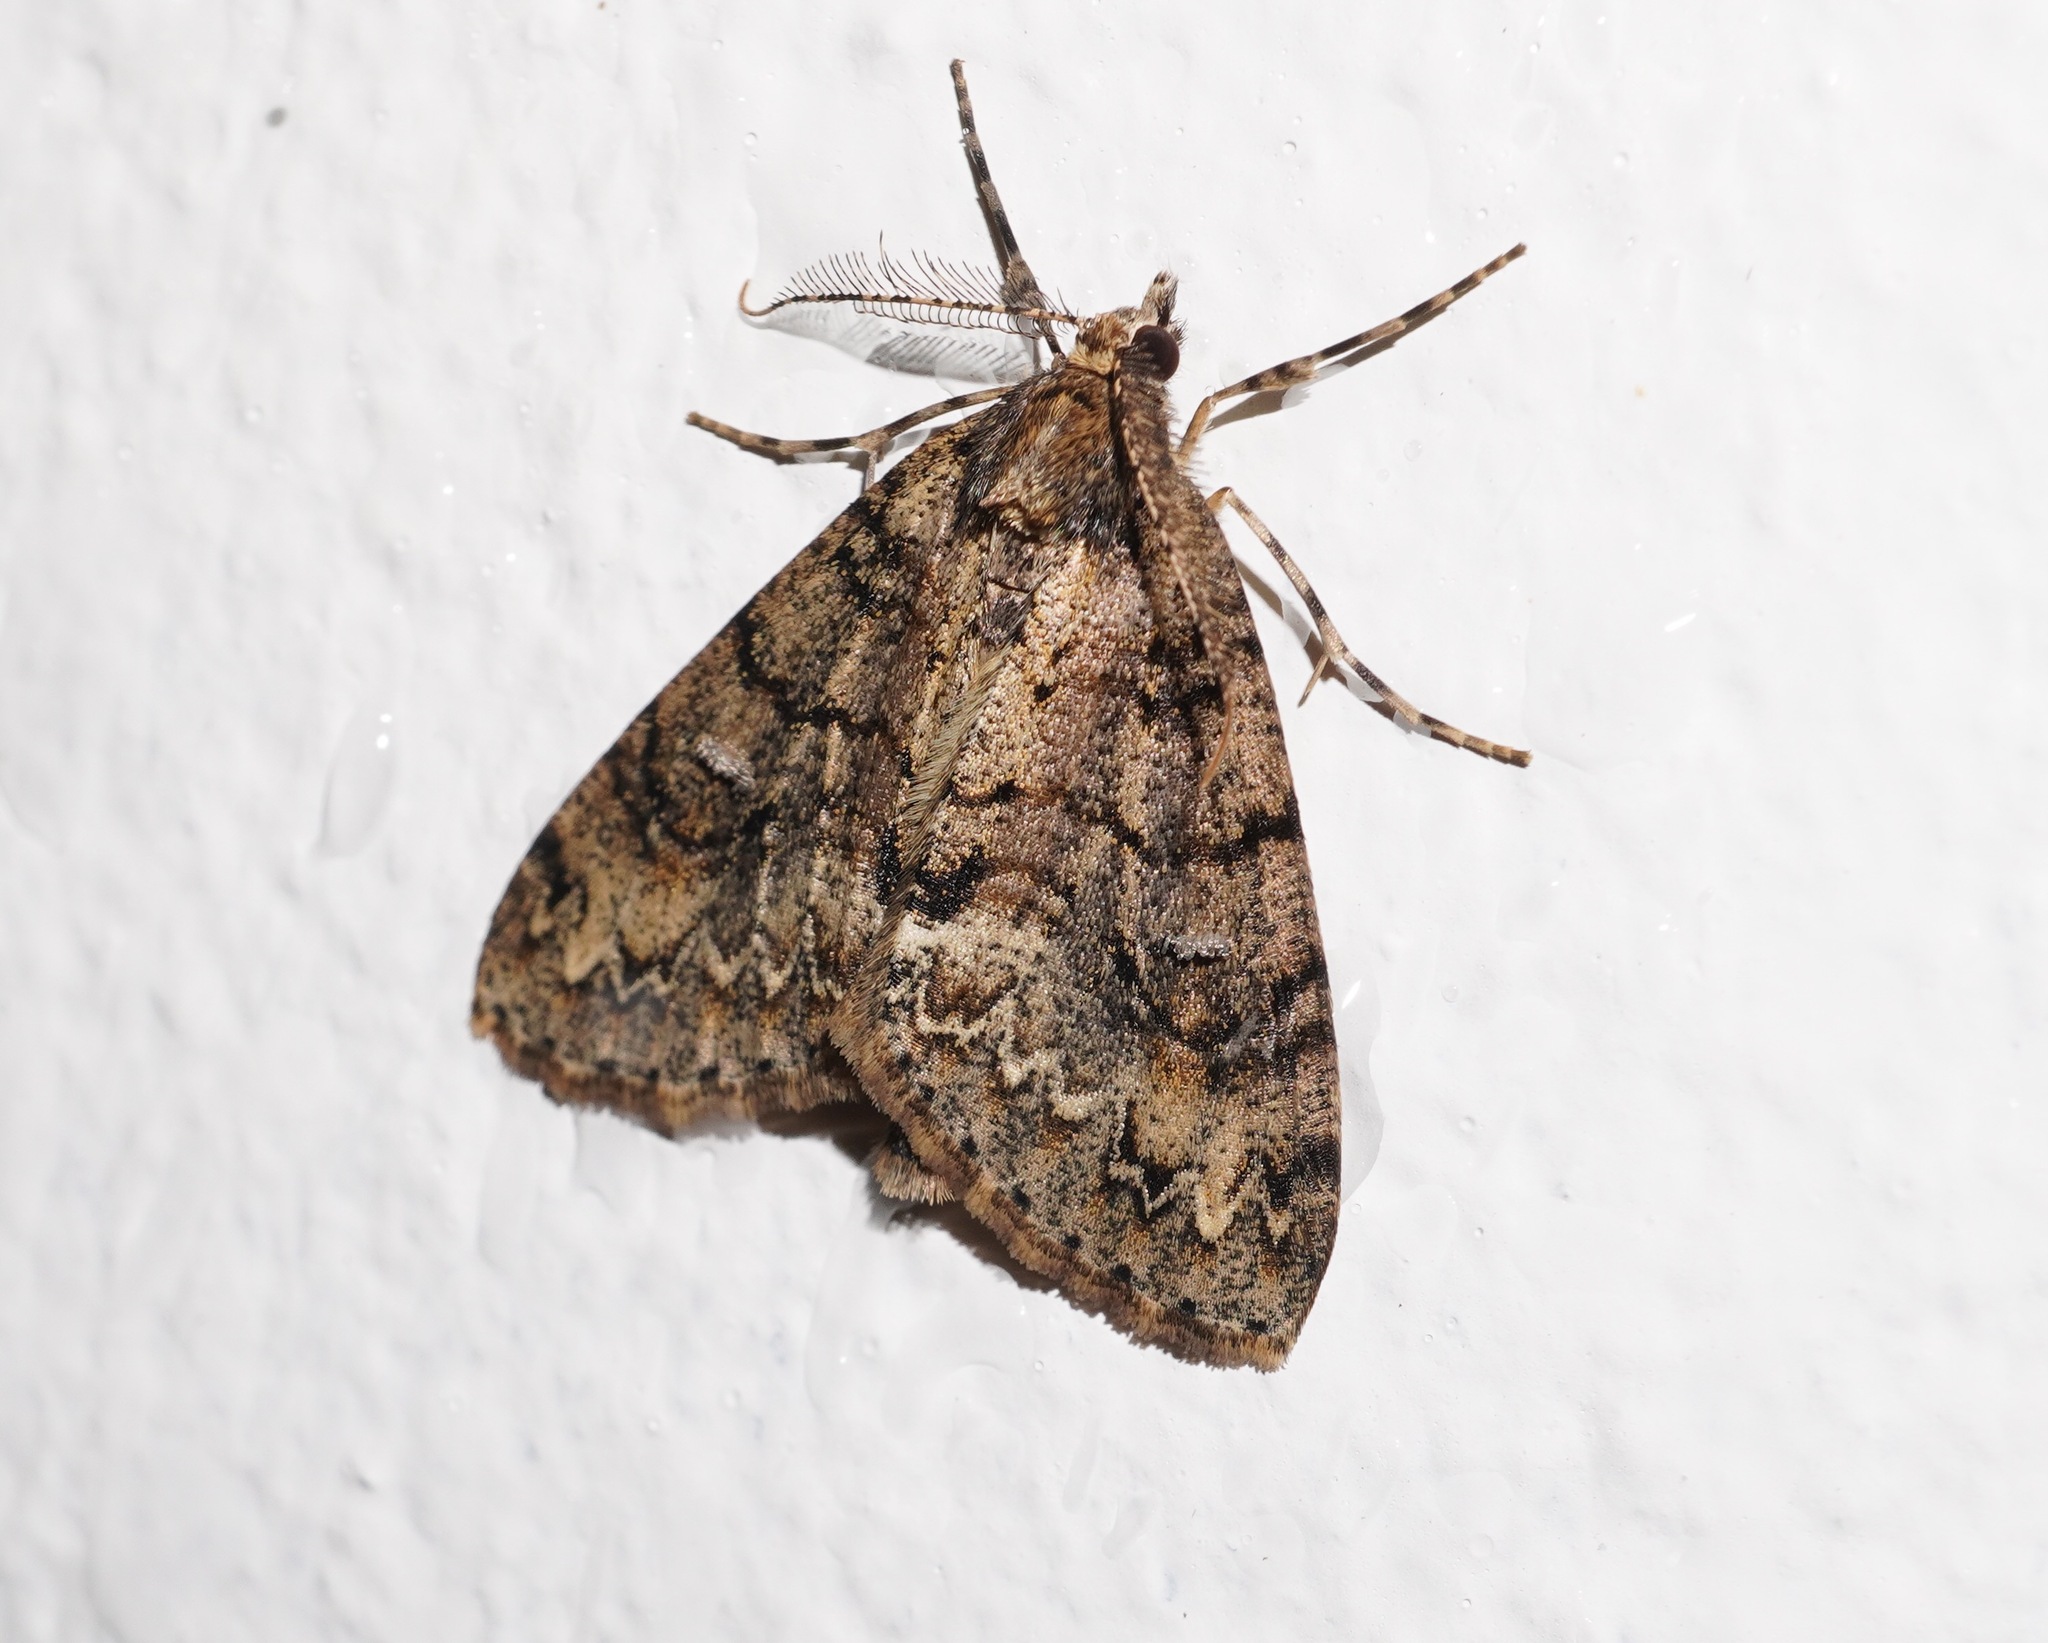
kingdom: Animalia
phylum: Arthropoda
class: Insecta
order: Lepidoptera
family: Geometridae
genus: Pseudocoremia
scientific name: Pseudocoremia suavis
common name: Common forest looper
